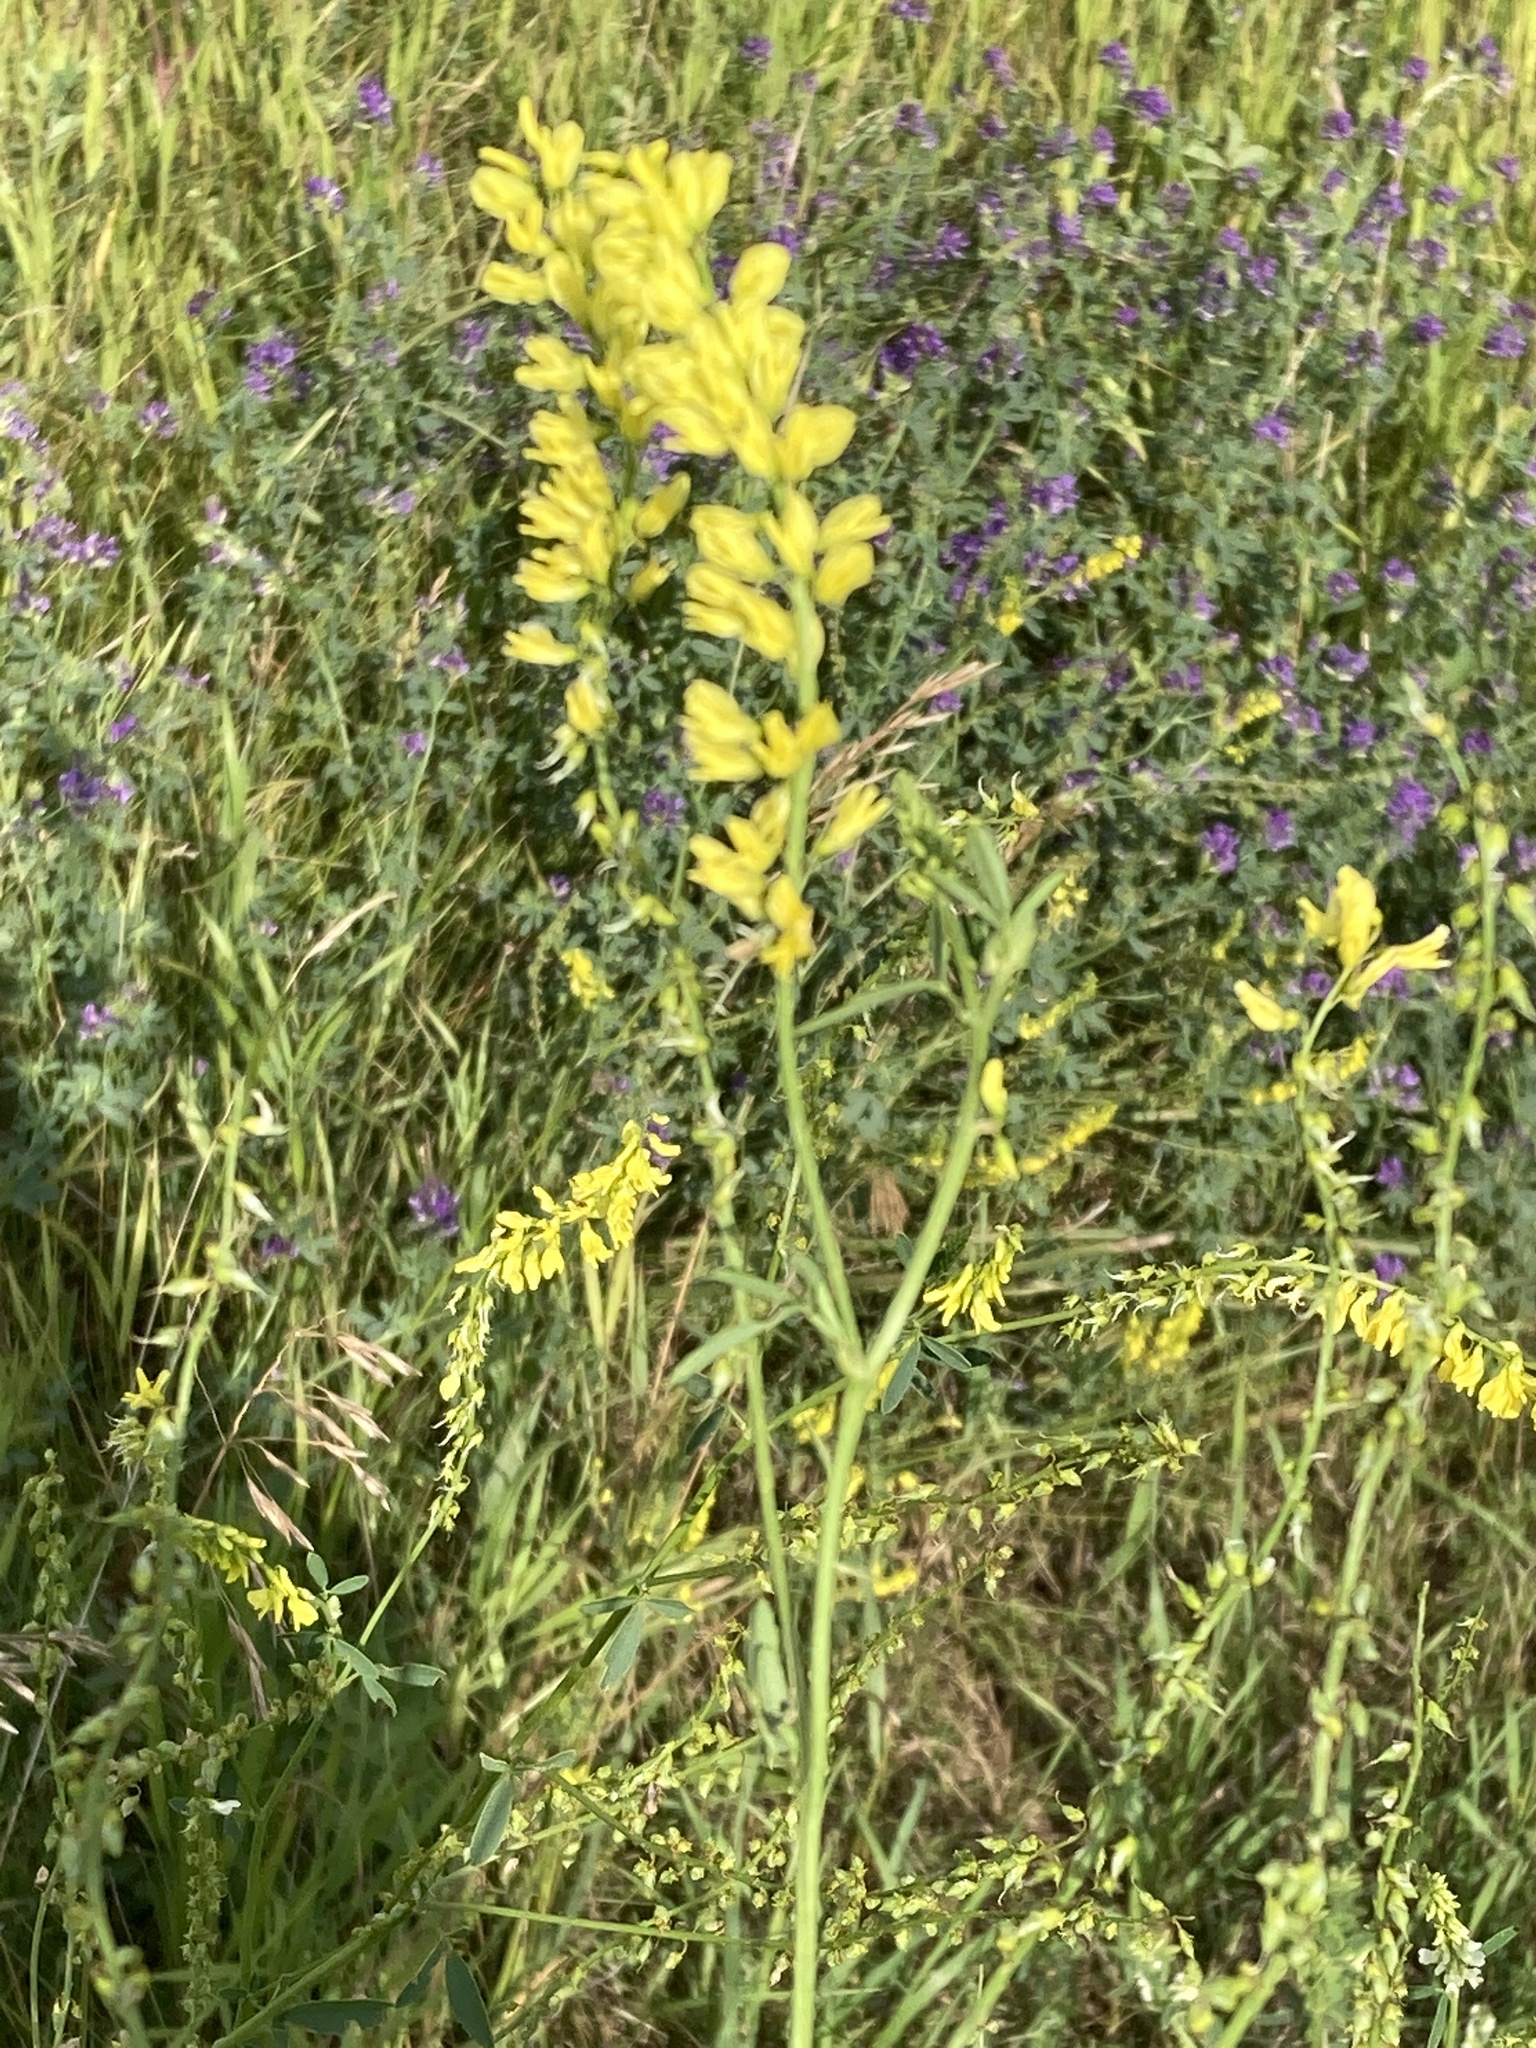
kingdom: Plantae
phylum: Tracheophyta
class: Magnoliopsida
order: Fabales
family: Fabaceae
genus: Melilotus
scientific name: Melilotus officinalis
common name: Sweetclover
